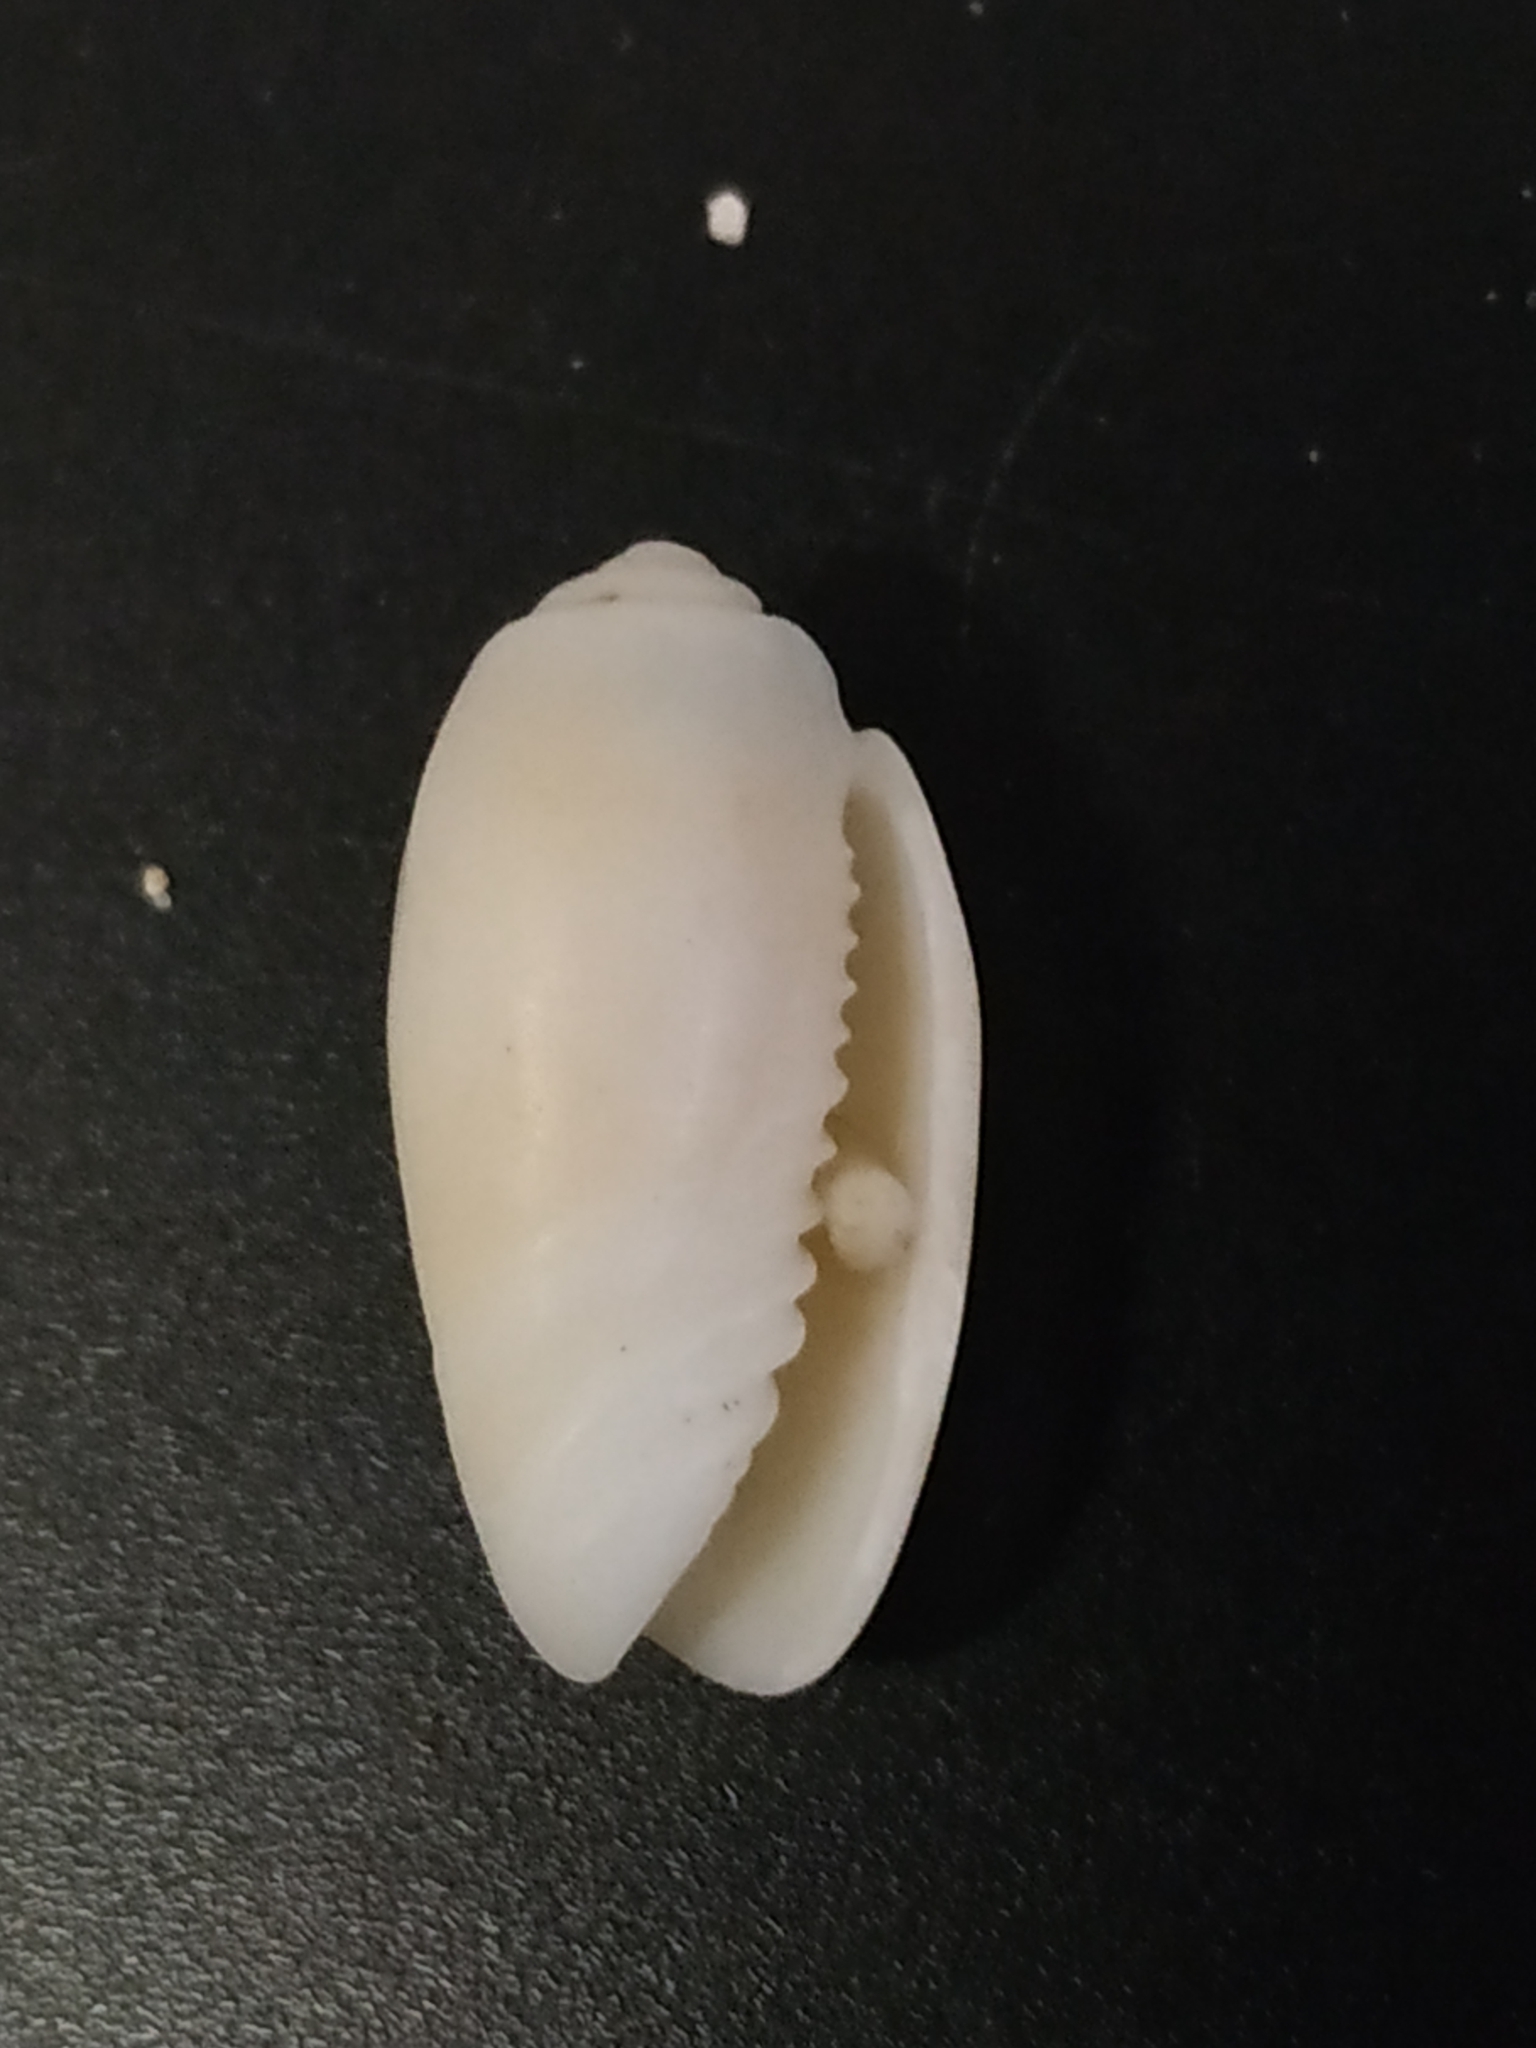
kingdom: Animalia
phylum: Mollusca
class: Gastropoda
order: Neogastropoda
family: Olividae
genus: Oliva
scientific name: Oliva amethystina
